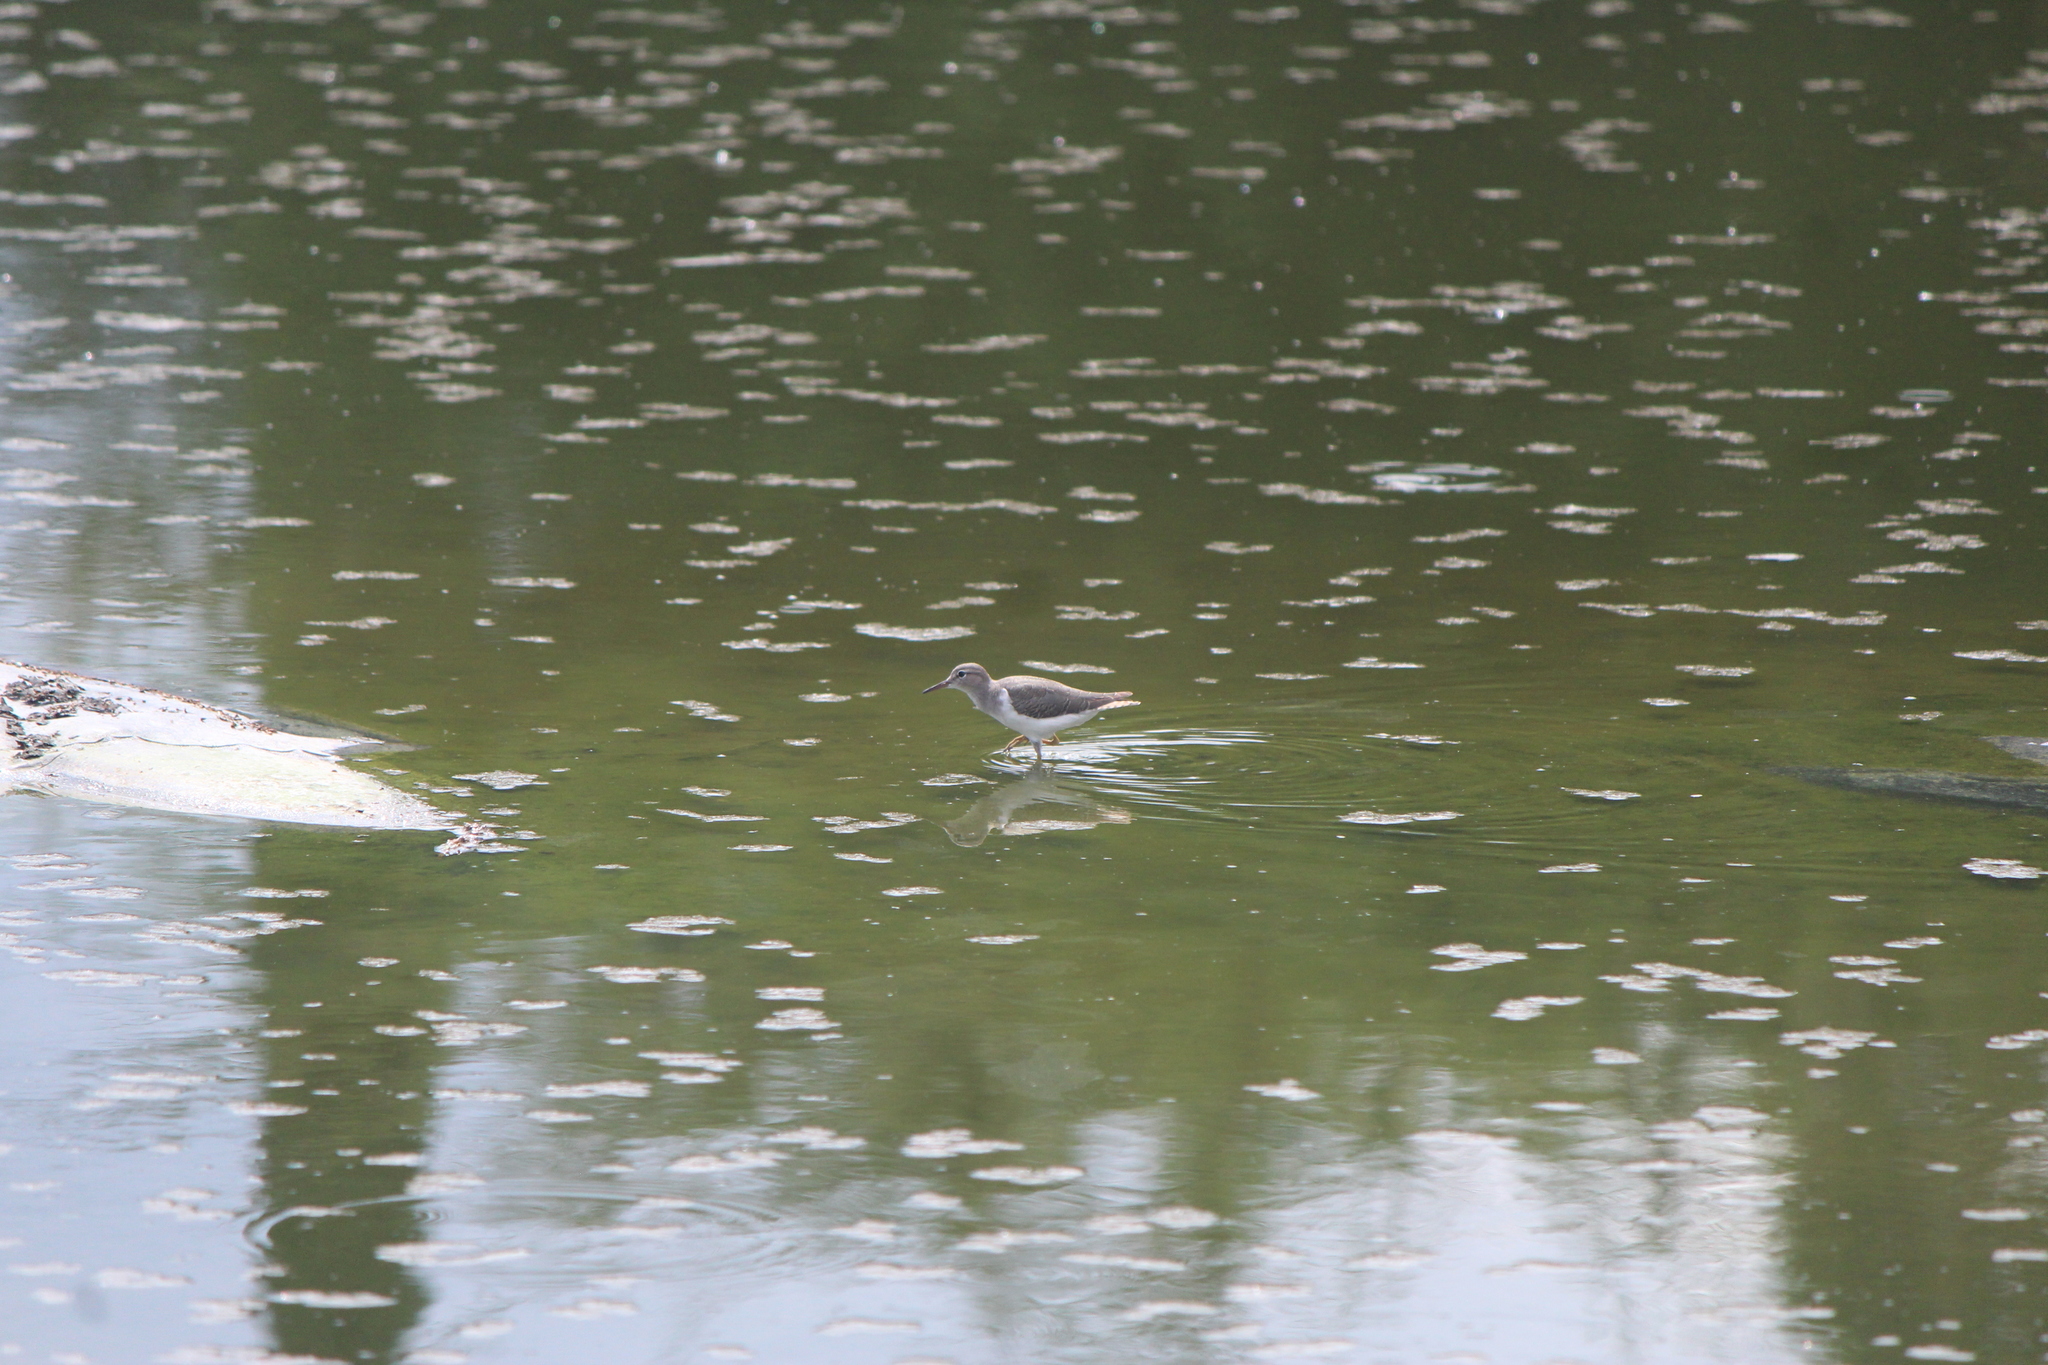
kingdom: Animalia
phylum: Chordata
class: Aves
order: Charadriiformes
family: Scolopacidae
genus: Actitis
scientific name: Actitis macularius
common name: Spotted sandpiper
